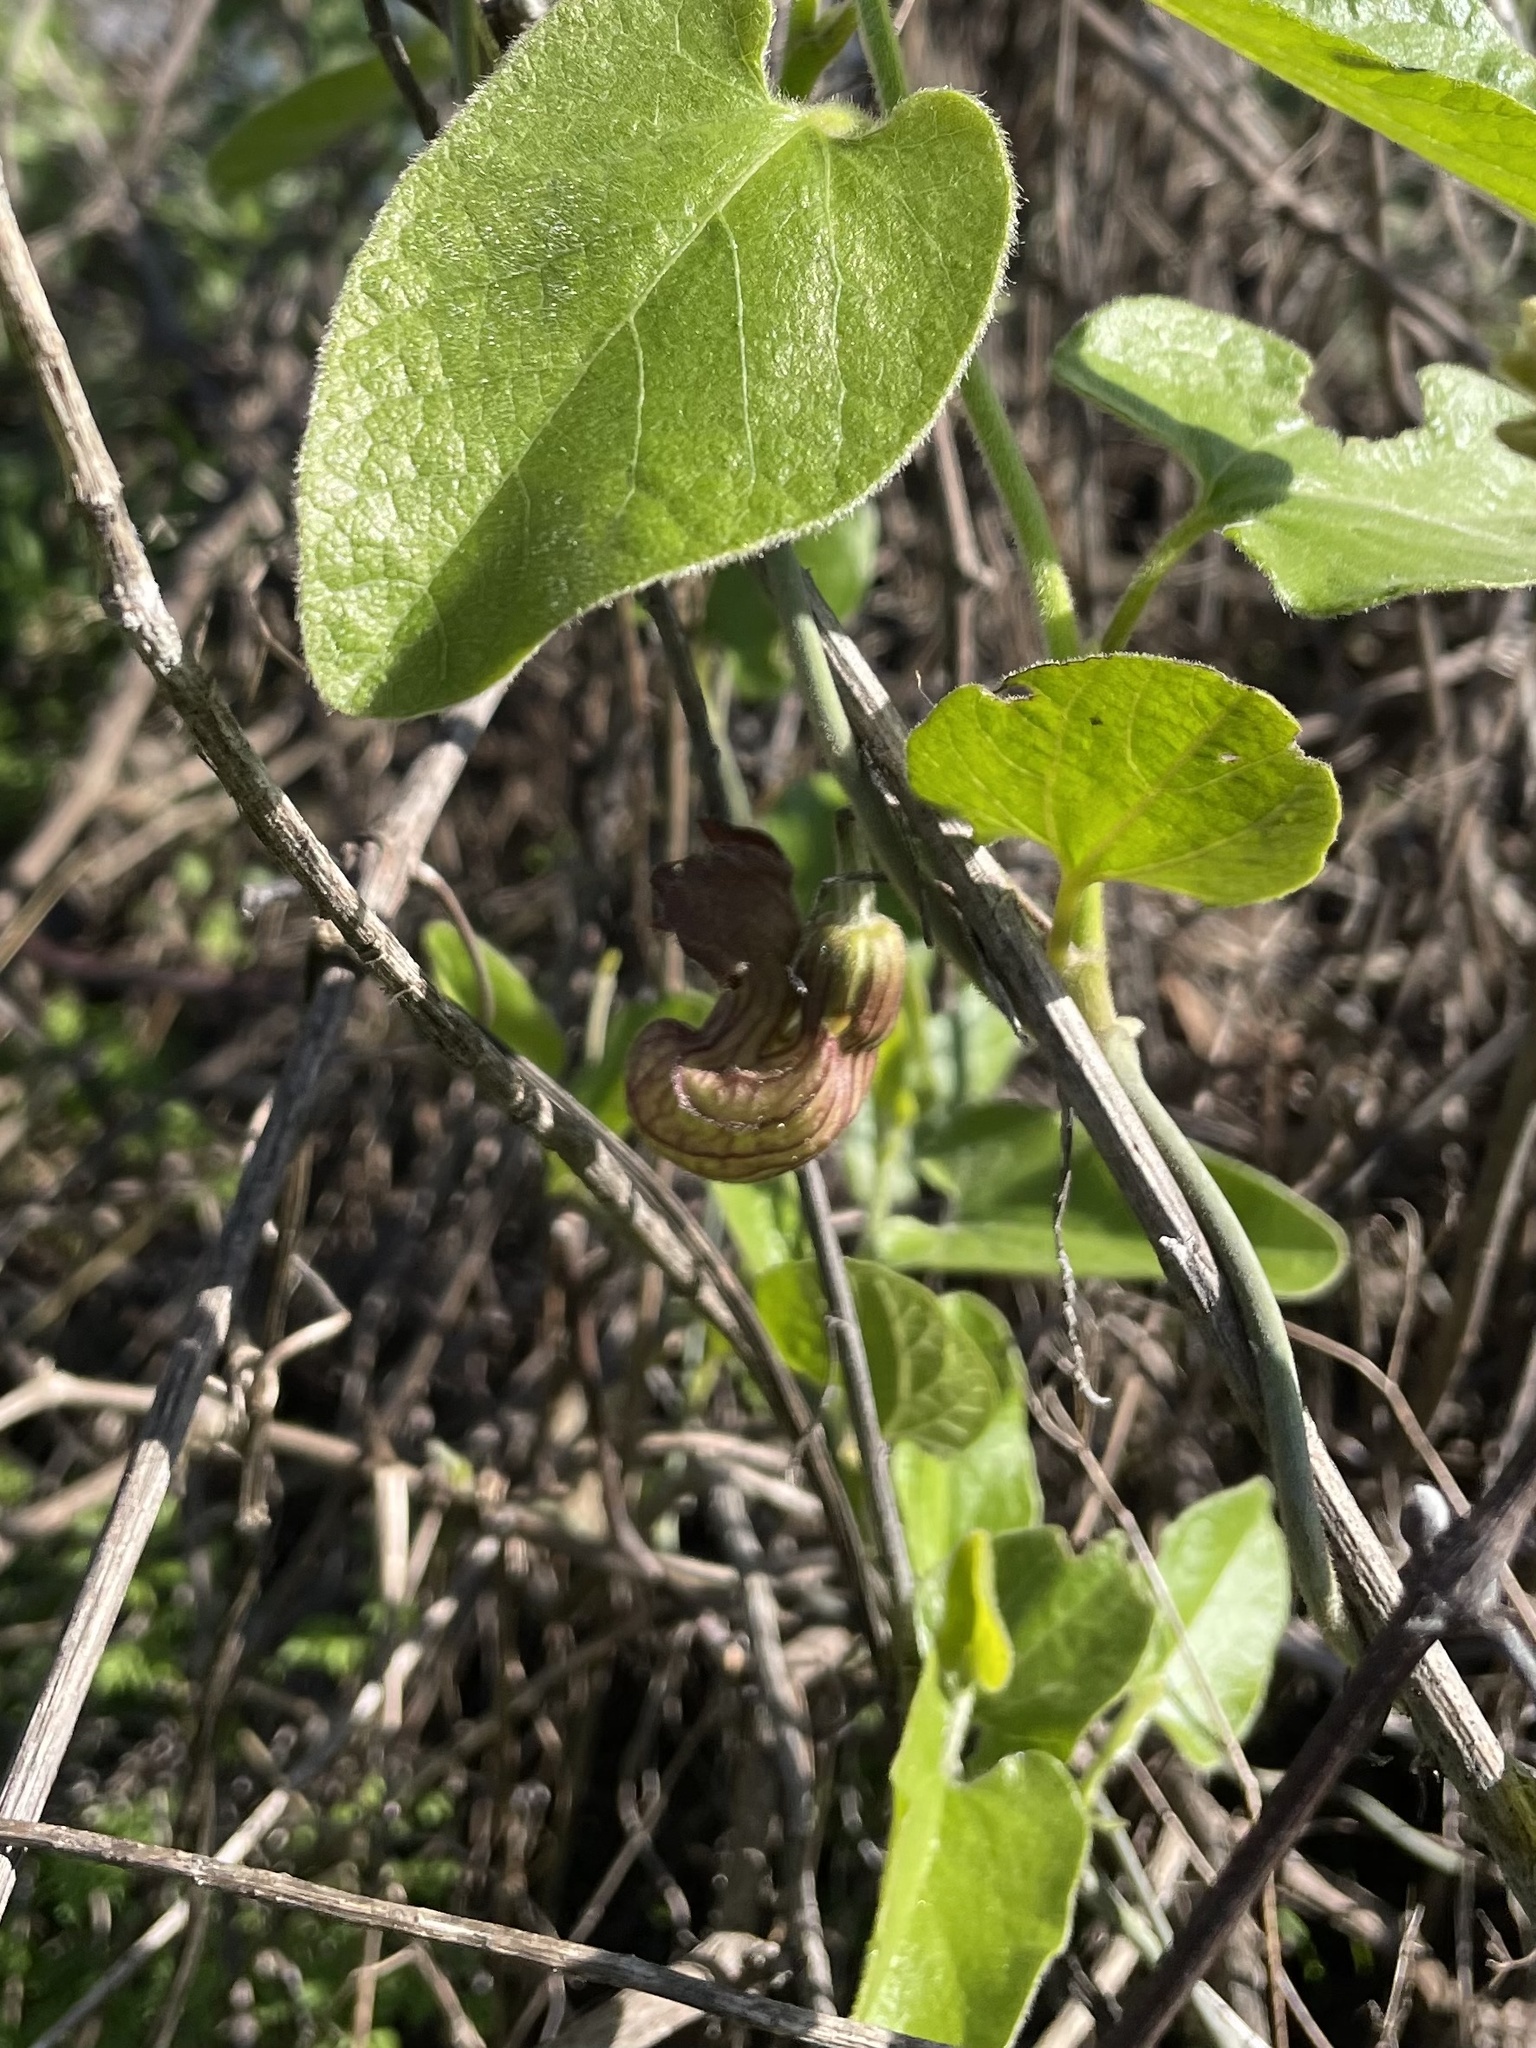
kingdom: Plantae
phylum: Tracheophyta
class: Magnoliopsida
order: Piperales
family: Aristolochiaceae
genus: Isotrema
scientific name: Isotrema californicum
